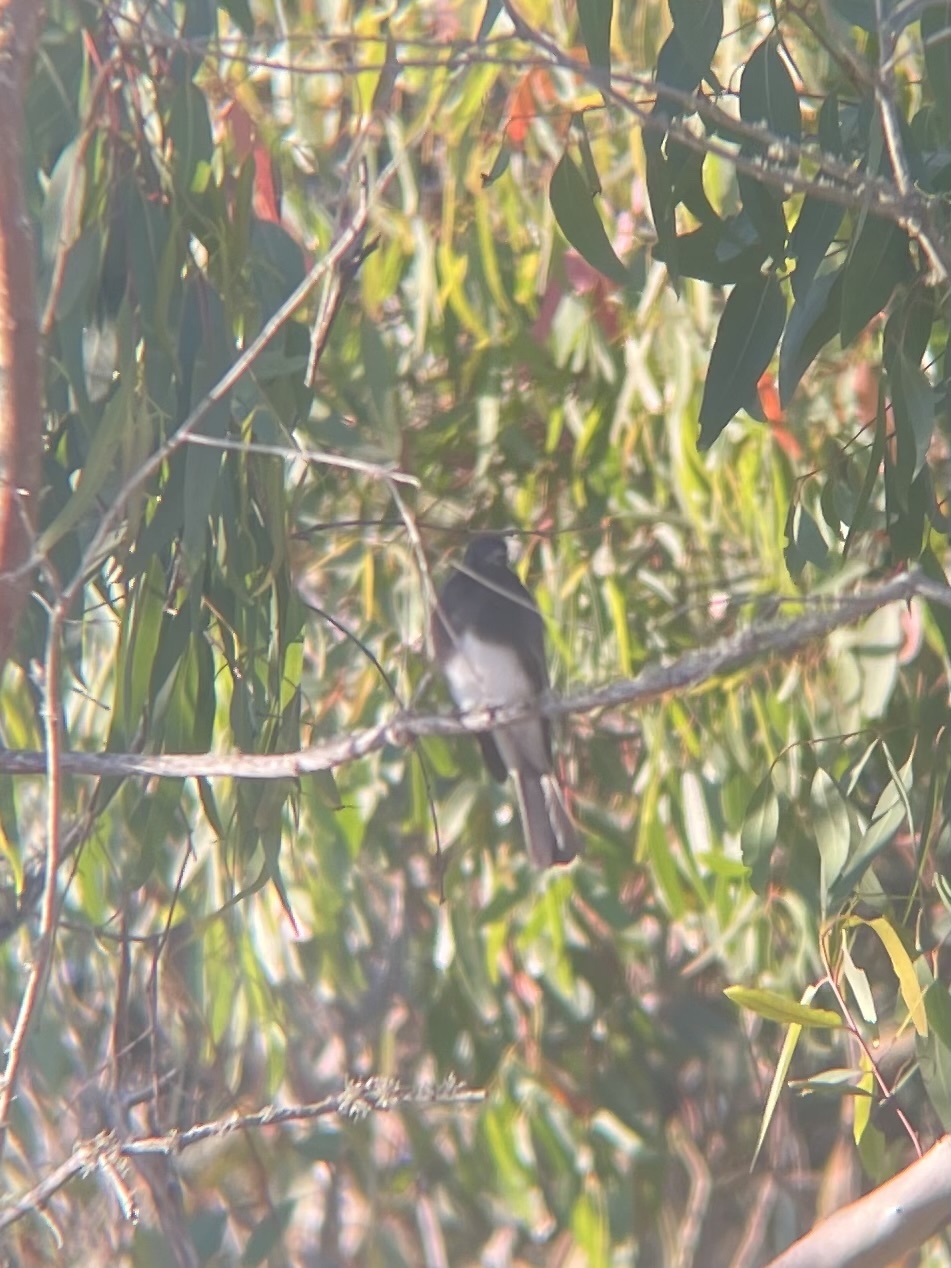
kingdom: Animalia
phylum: Chordata
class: Aves
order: Passeriformes
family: Tyrannidae
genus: Sayornis
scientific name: Sayornis nigricans
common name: Black phoebe
